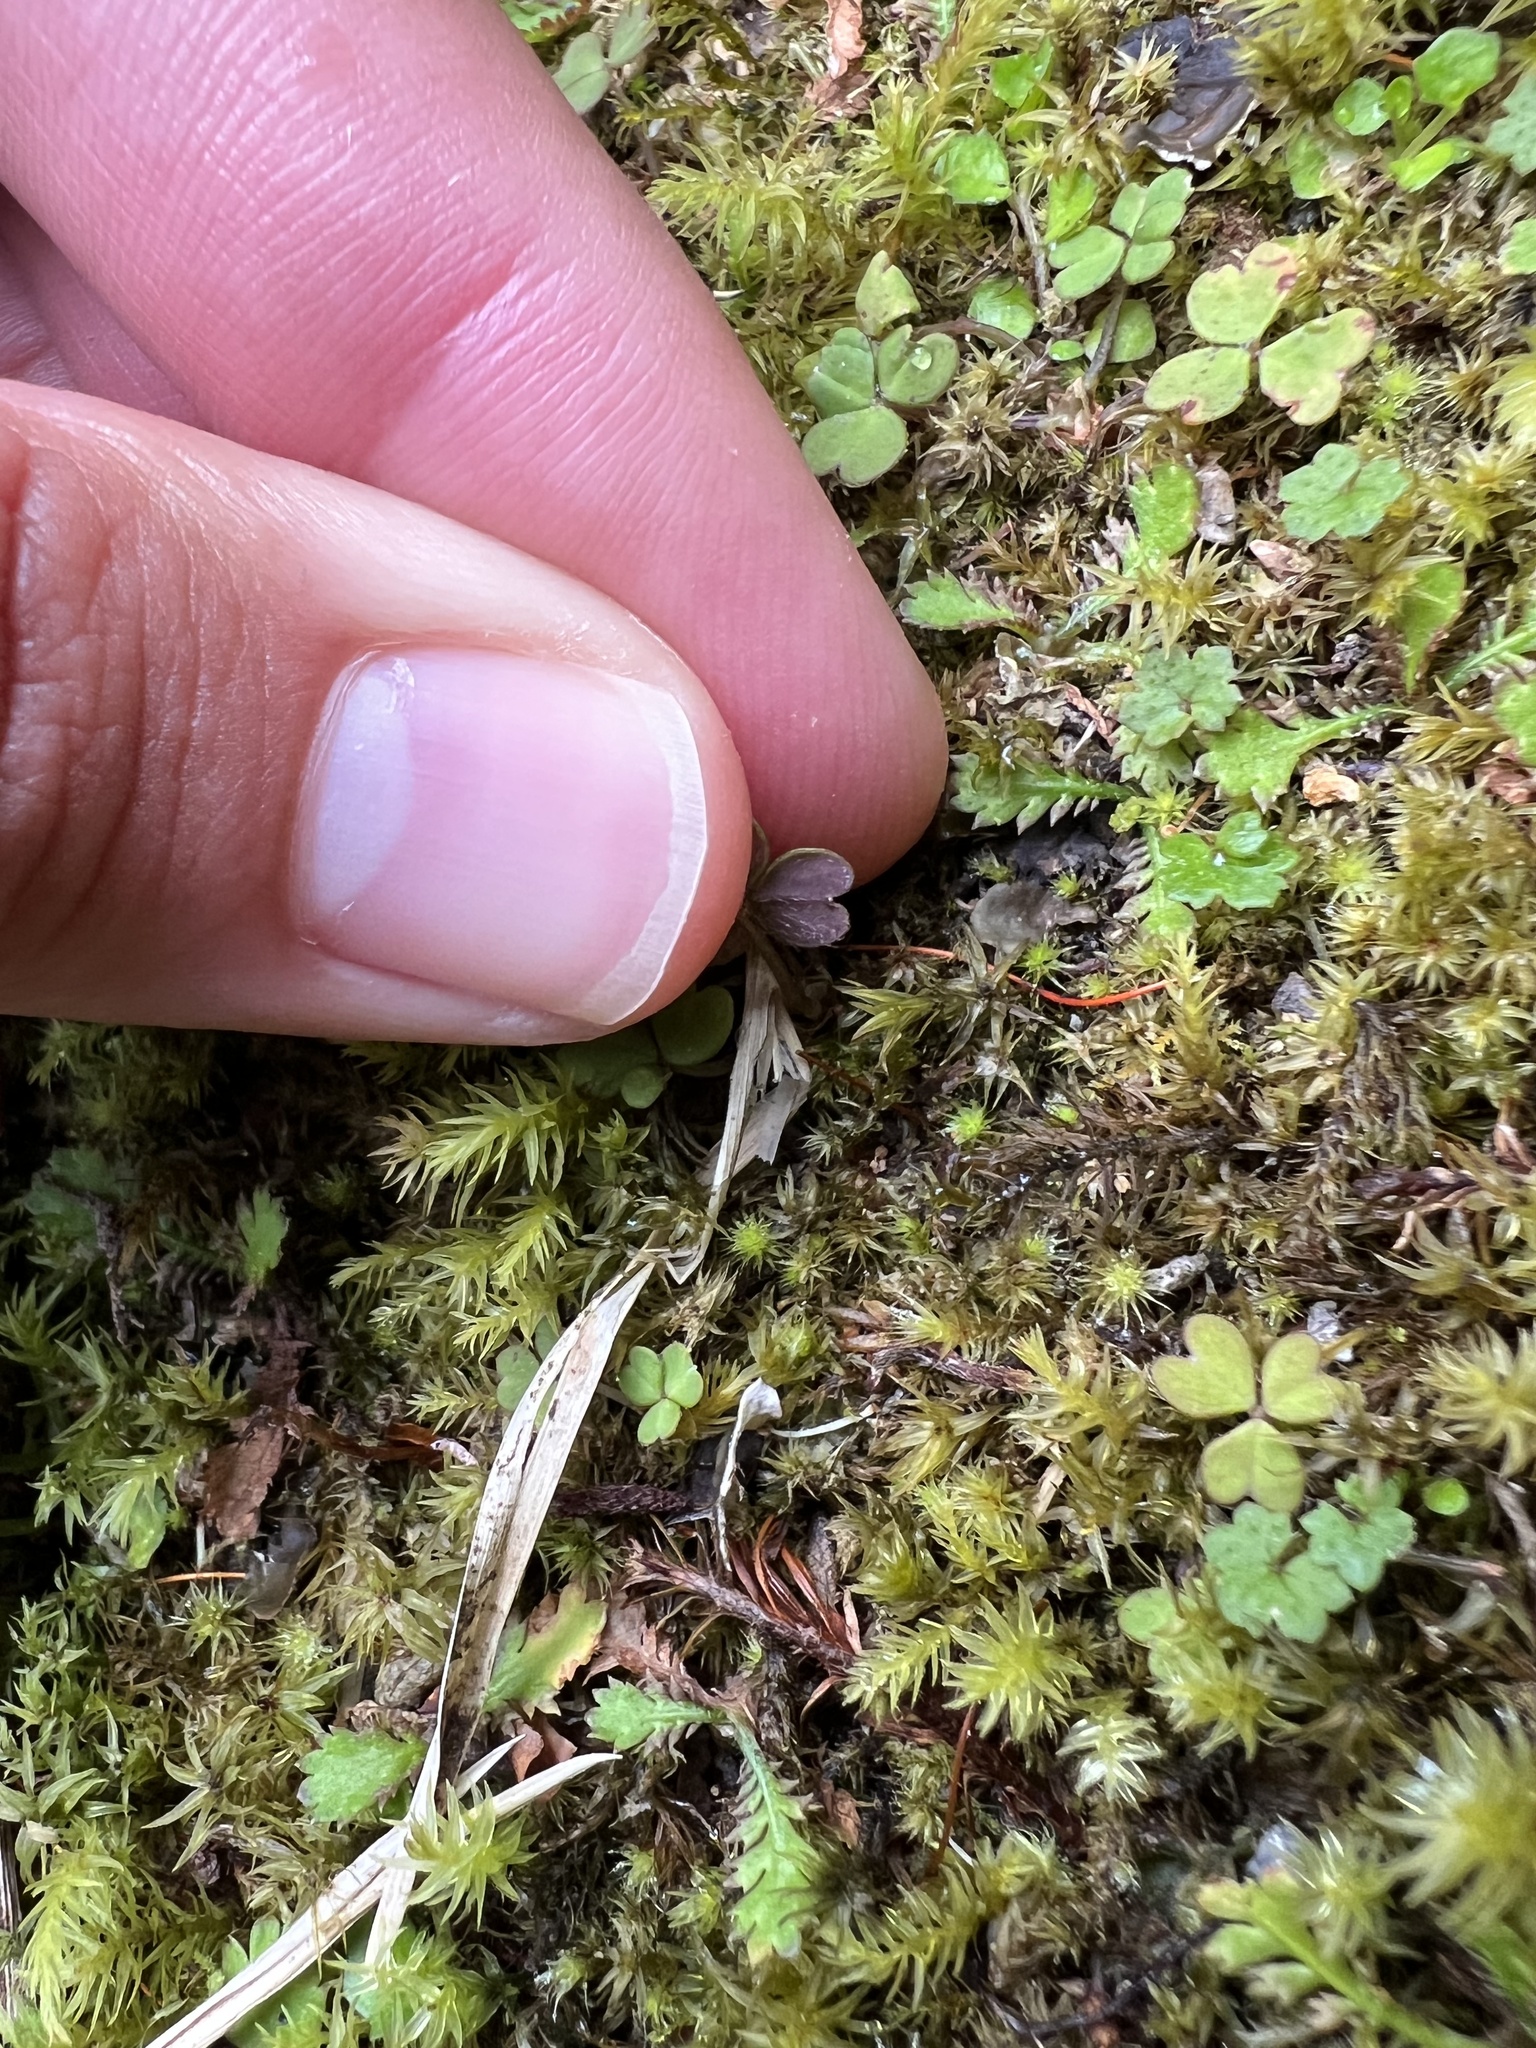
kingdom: Plantae
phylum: Tracheophyta
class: Magnoliopsida
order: Oxalidales
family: Oxalidaceae
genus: Oxalis
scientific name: Oxalis magellanica
